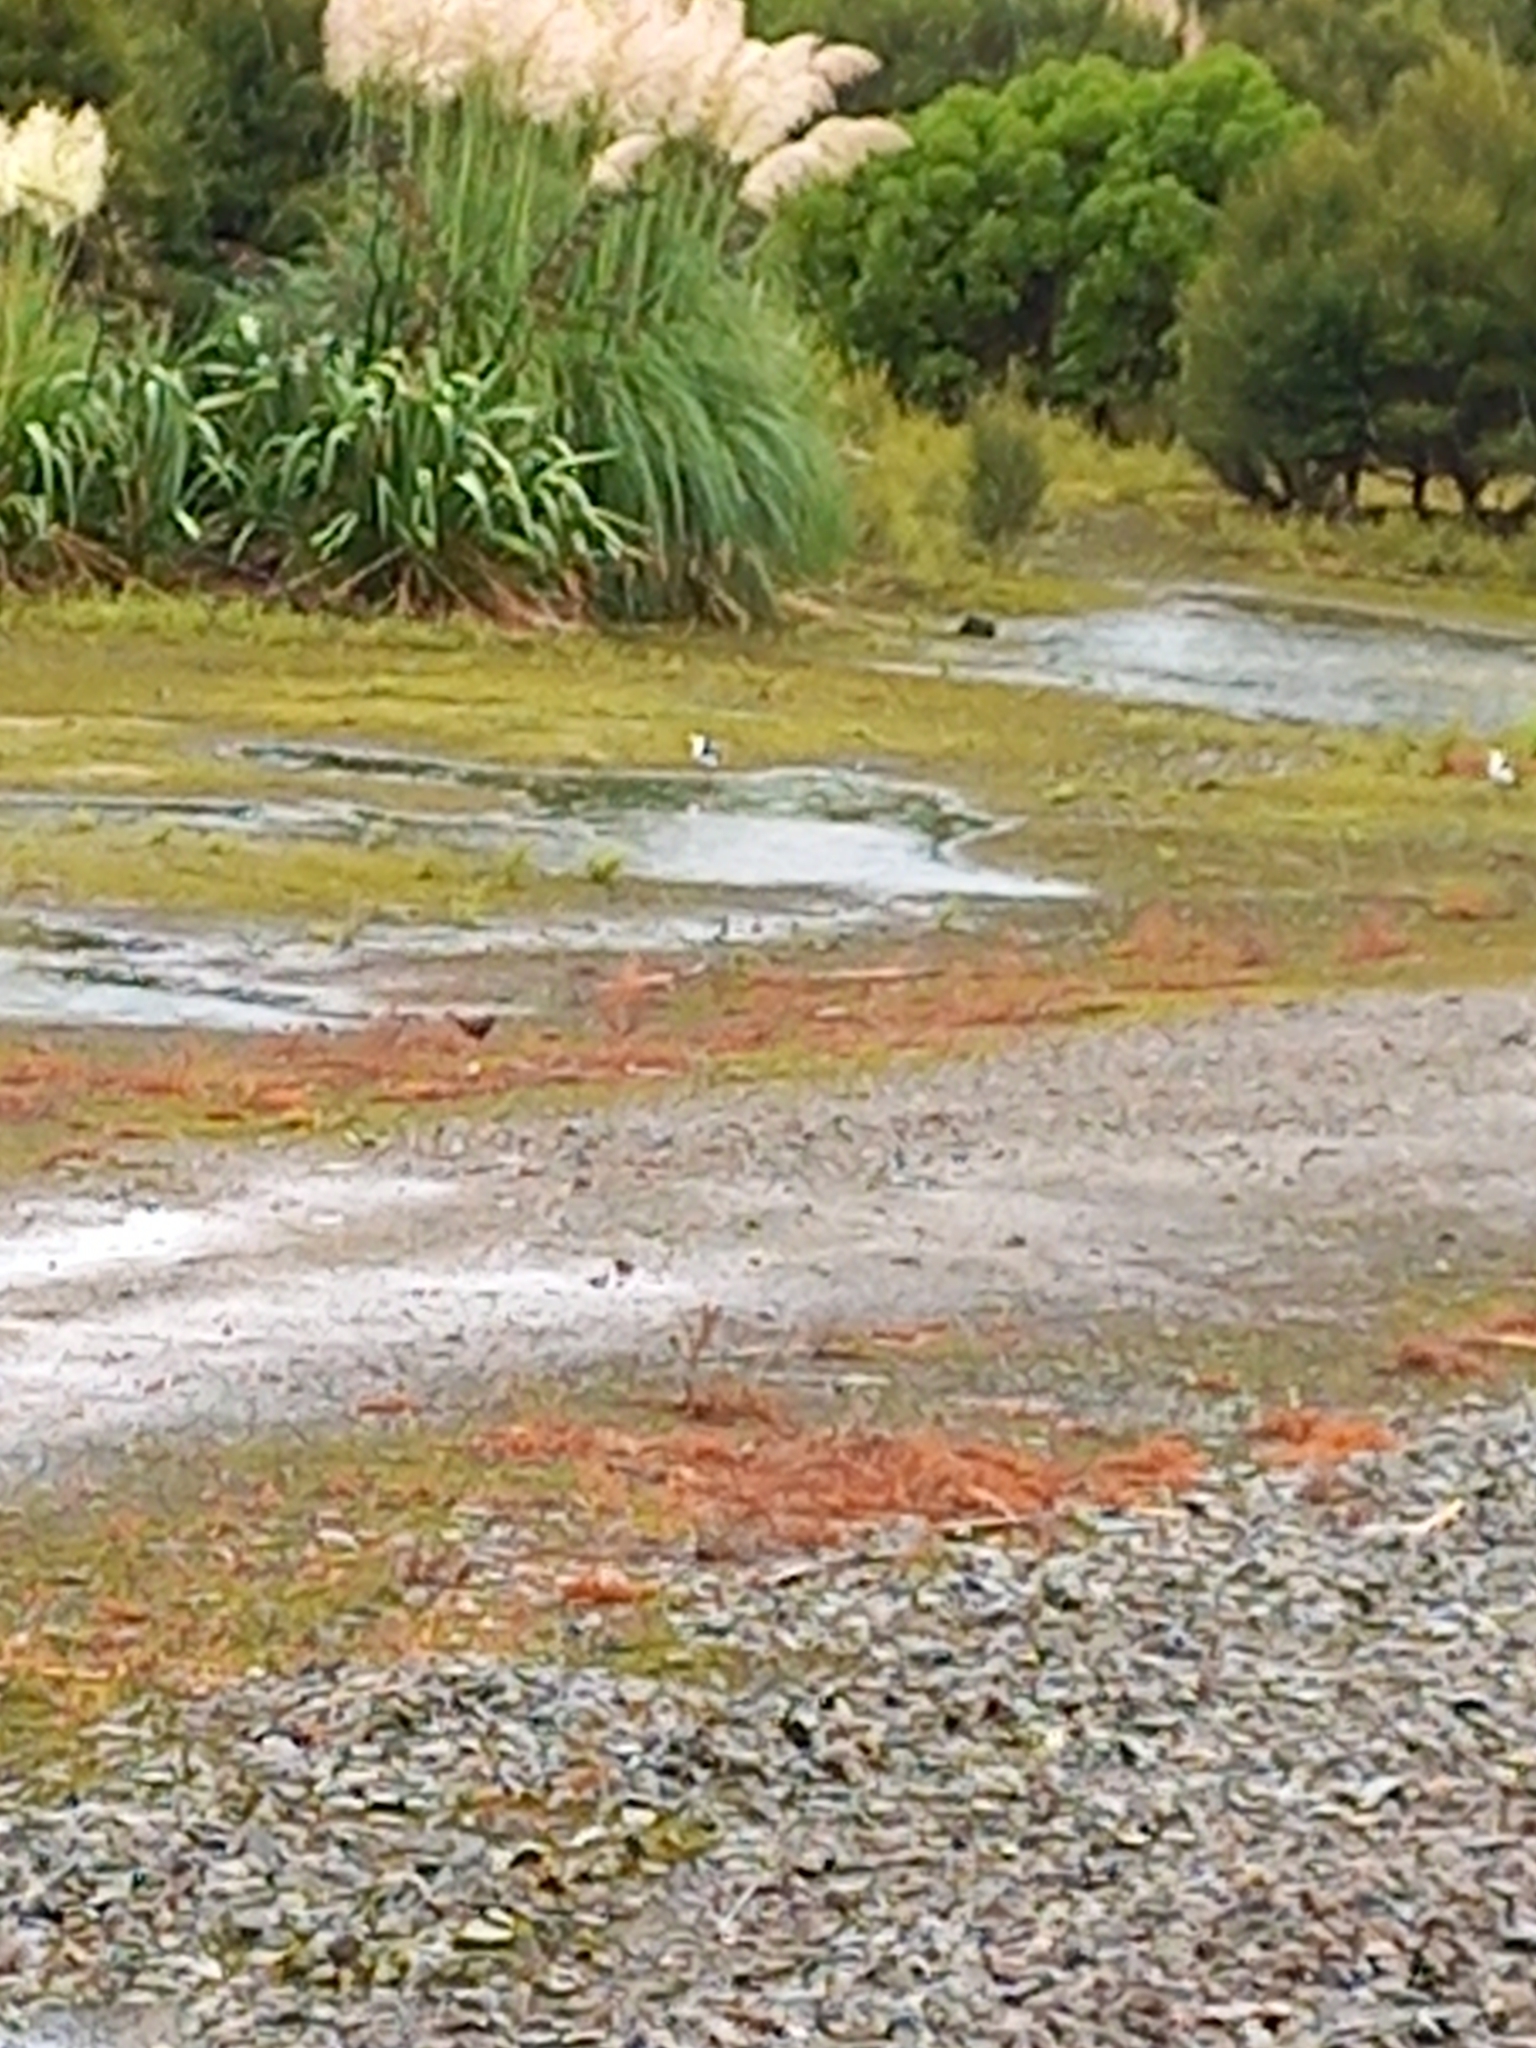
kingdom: Animalia
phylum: Chordata
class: Aves
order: Charadriiformes
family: Charadriidae
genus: Vanellus
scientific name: Vanellus miles
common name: Masked lapwing
